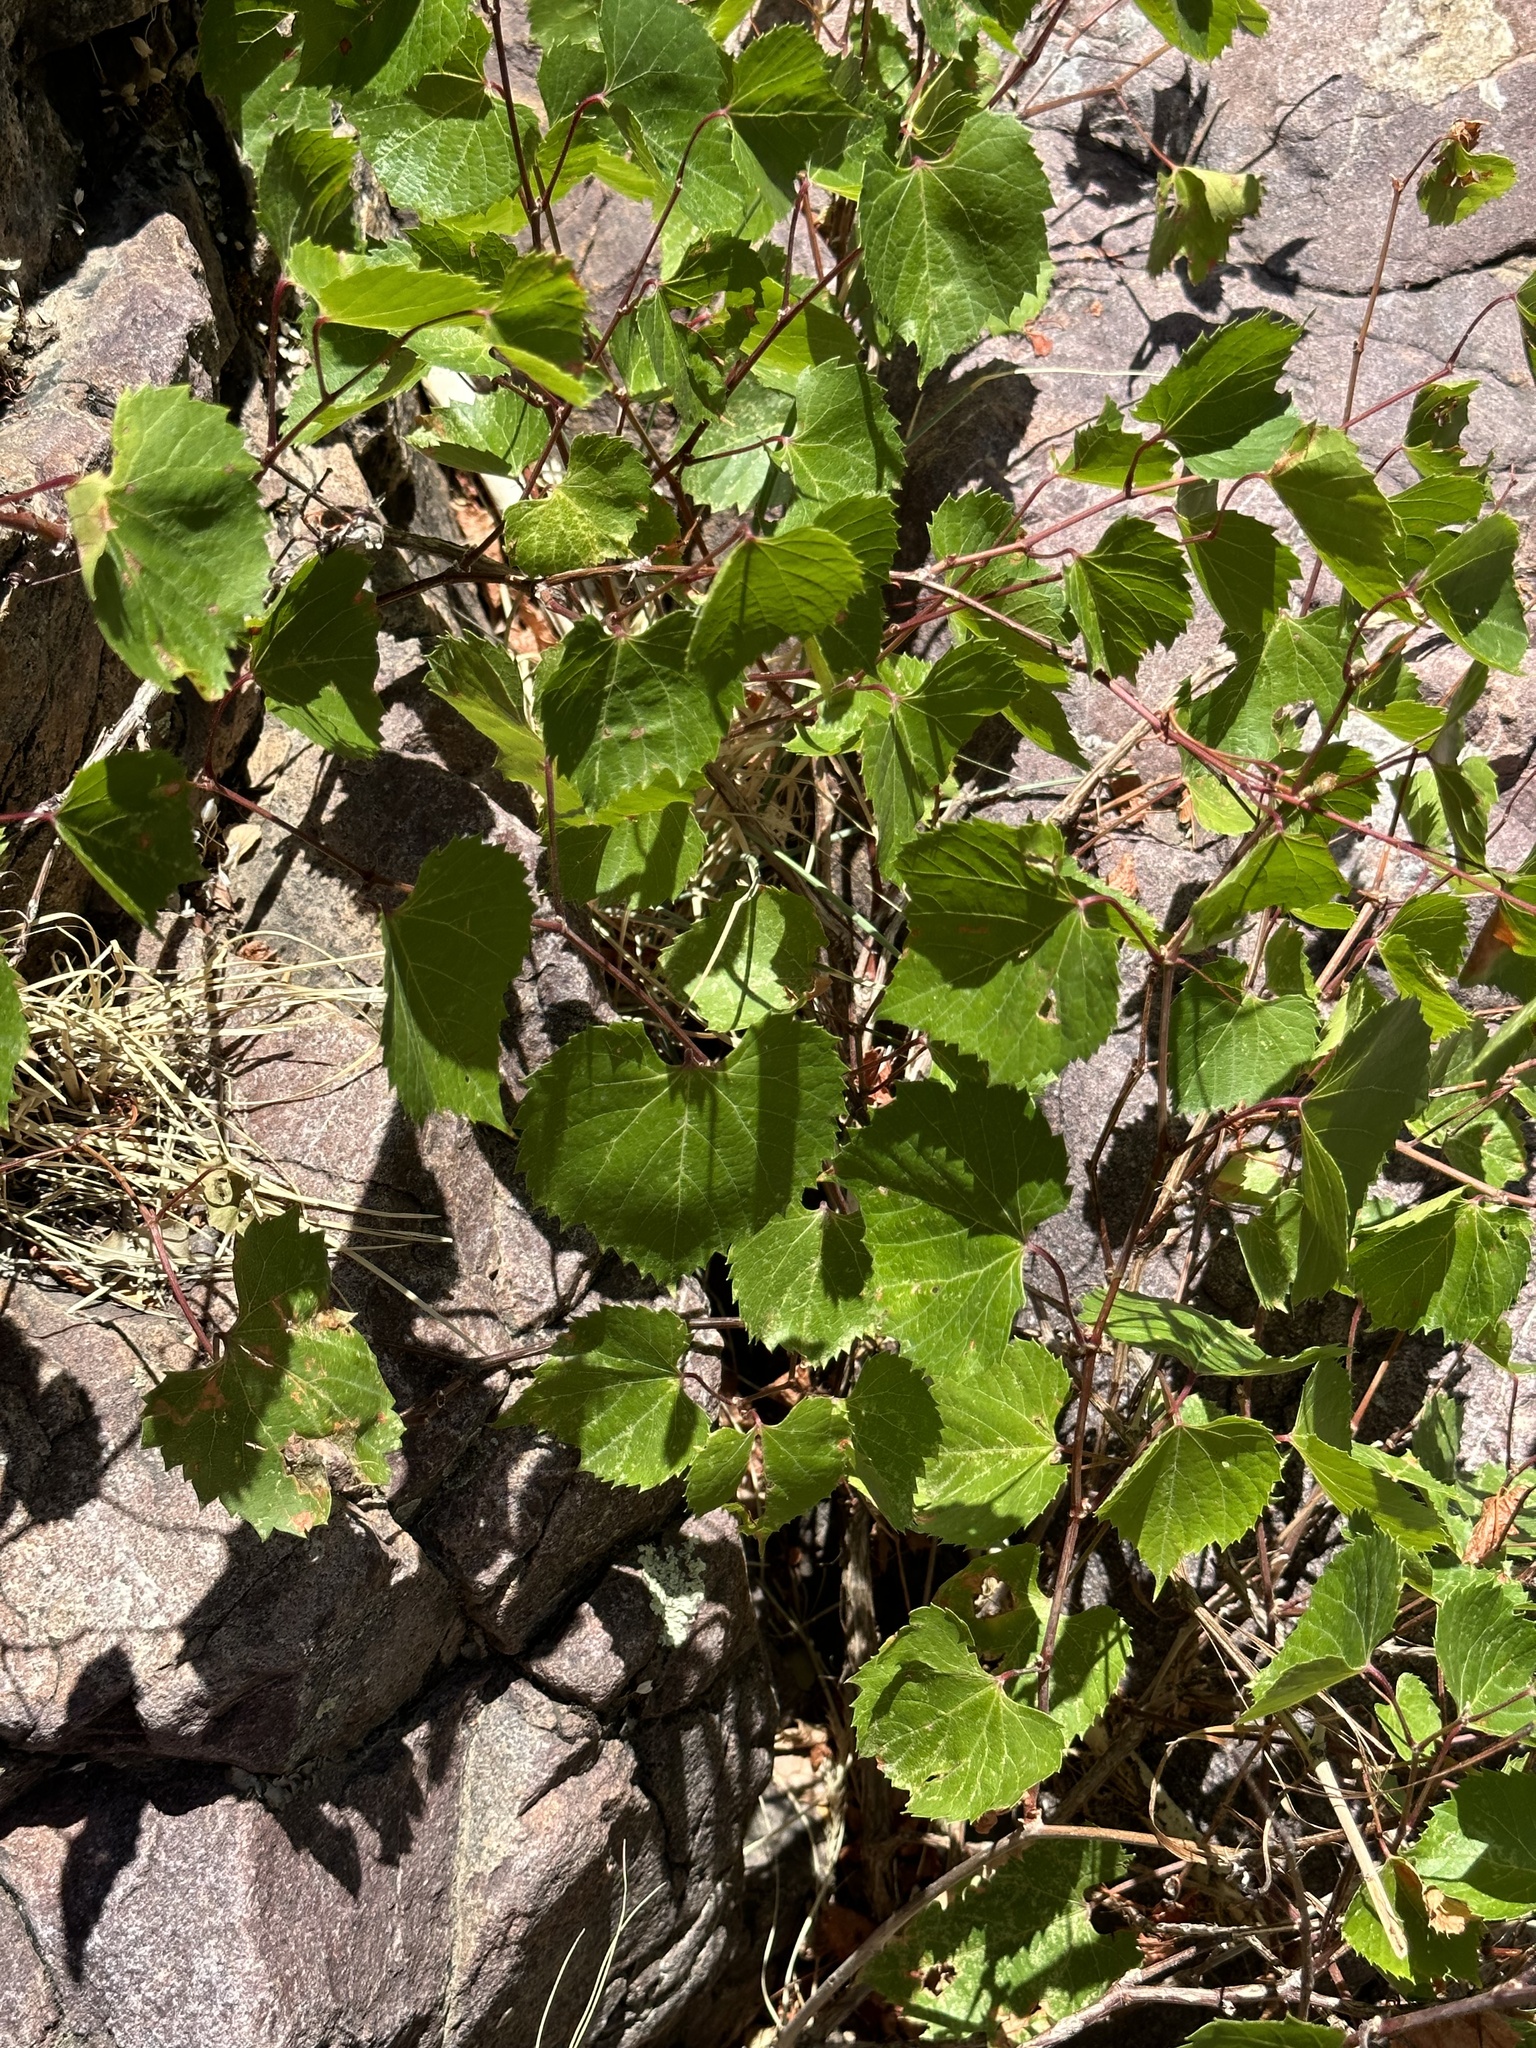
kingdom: Plantae
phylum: Tracheophyta
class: Magnoliopsida
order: Vitales
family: Vitaceae
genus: Vitis
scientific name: Vitis arizonica
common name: Canyon grape
